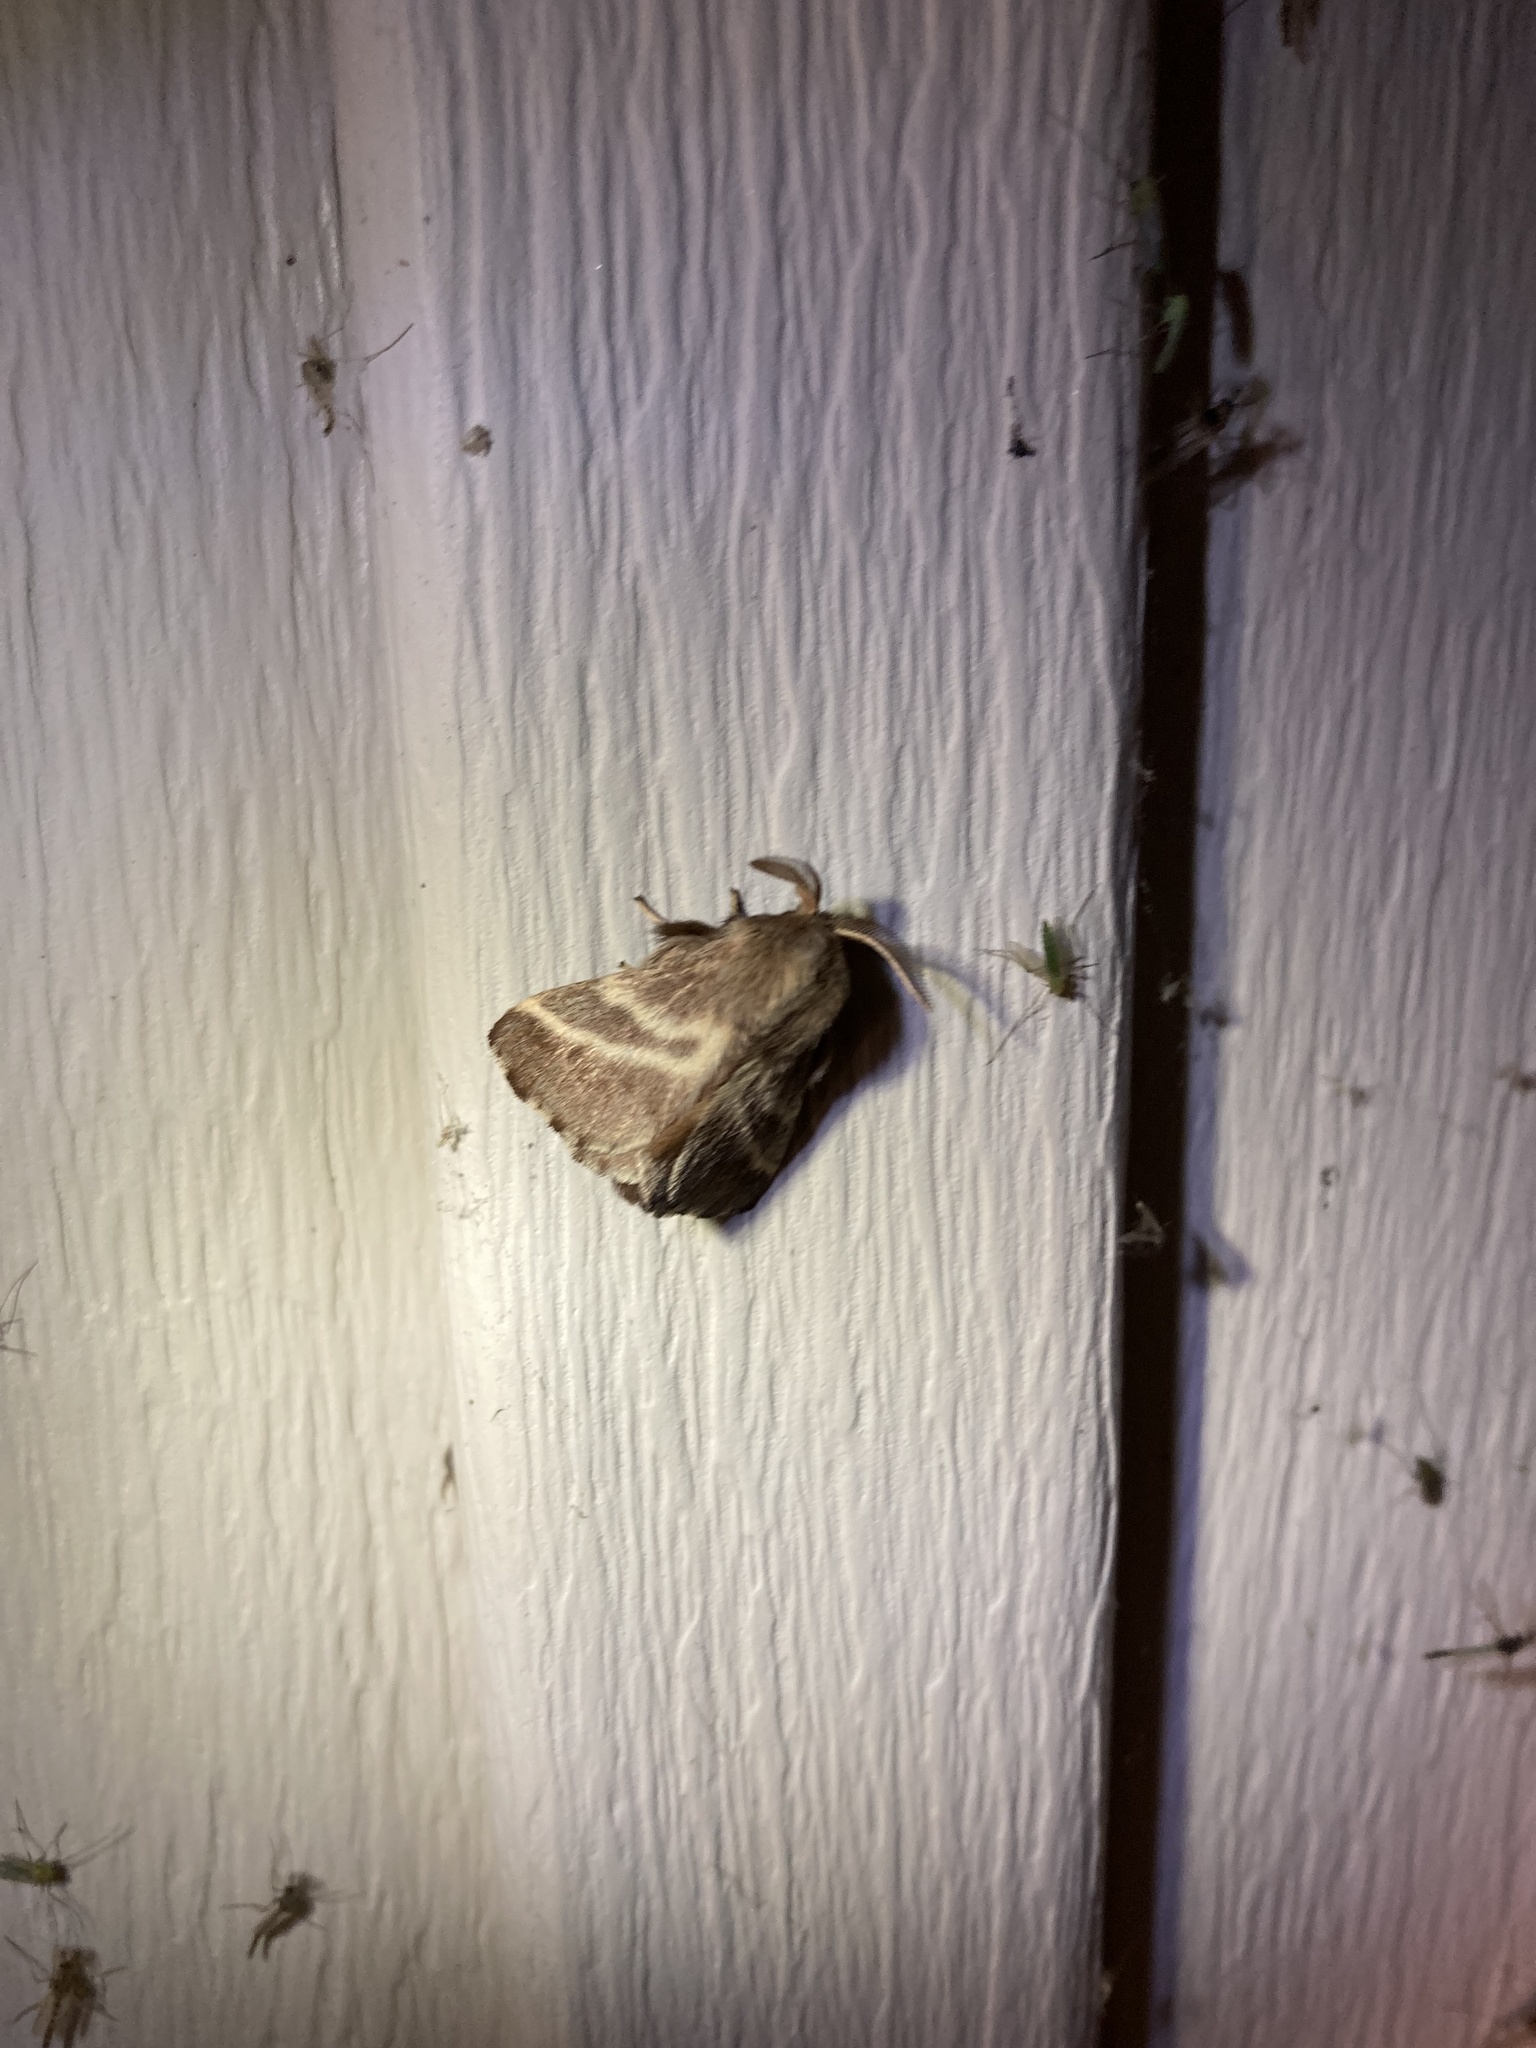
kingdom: Animalia
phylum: Arthropoda
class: Insecta
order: Lepidoptera
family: Lasiocampidae
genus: Malacosoma
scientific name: Malacosoma americana
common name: Eastern tent caterpillar moth
